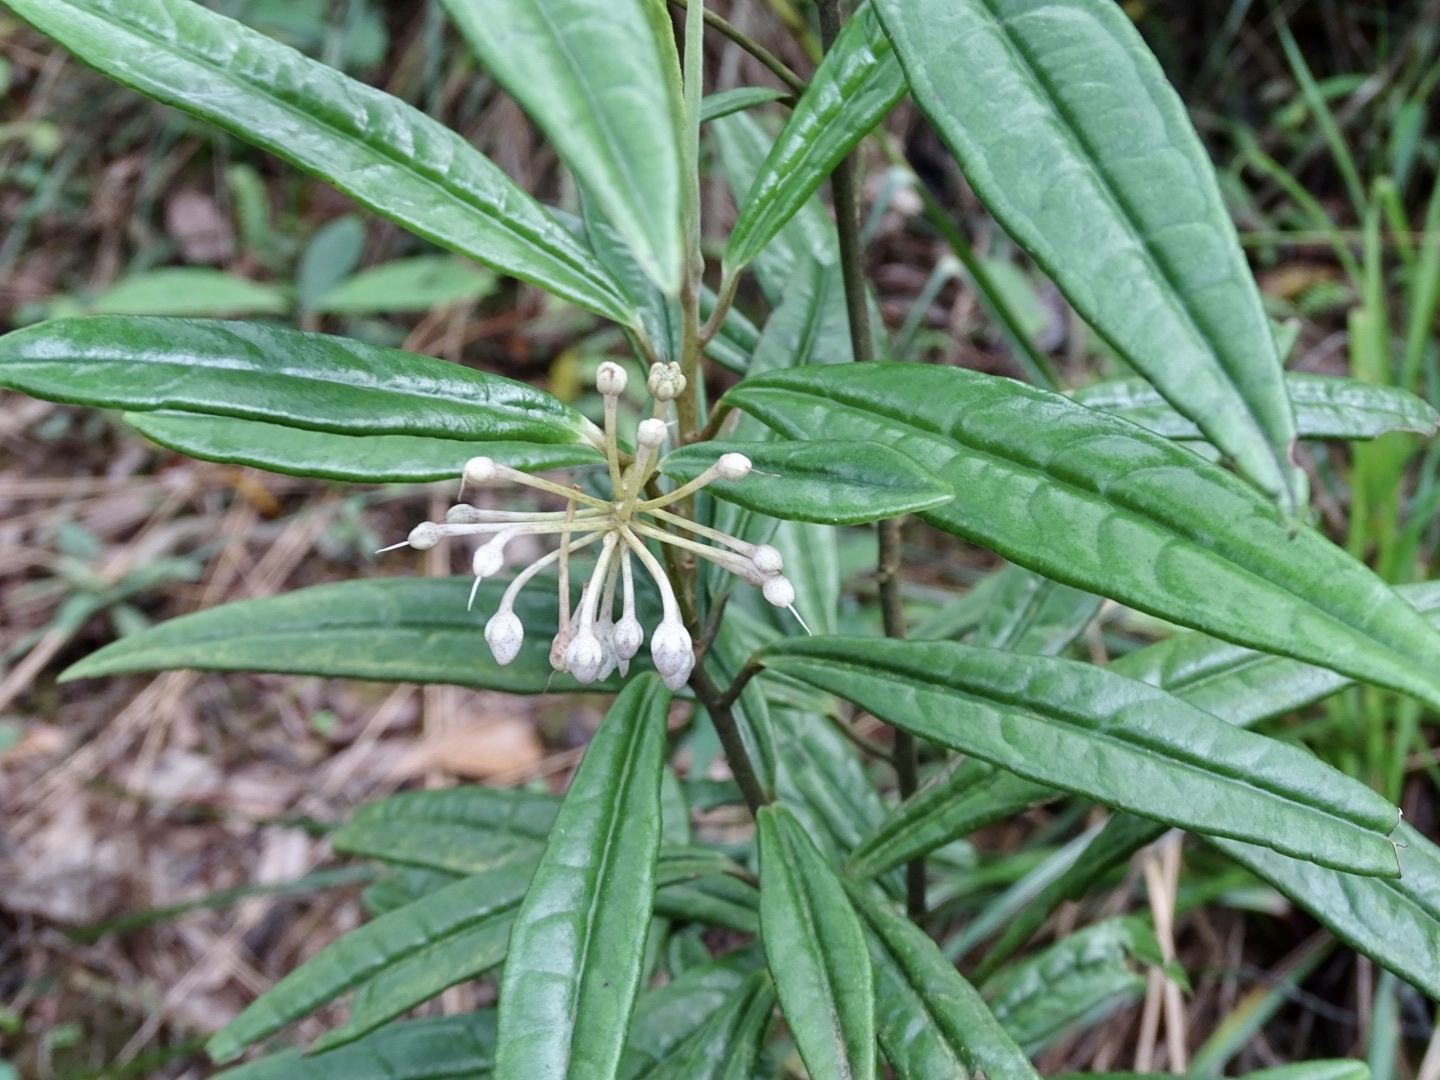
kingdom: Plantae
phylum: Tracheophyta
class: Magnoliopsida
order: Ericales
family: Primulaceae
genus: Ardisia
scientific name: Ardisia lindleyana
